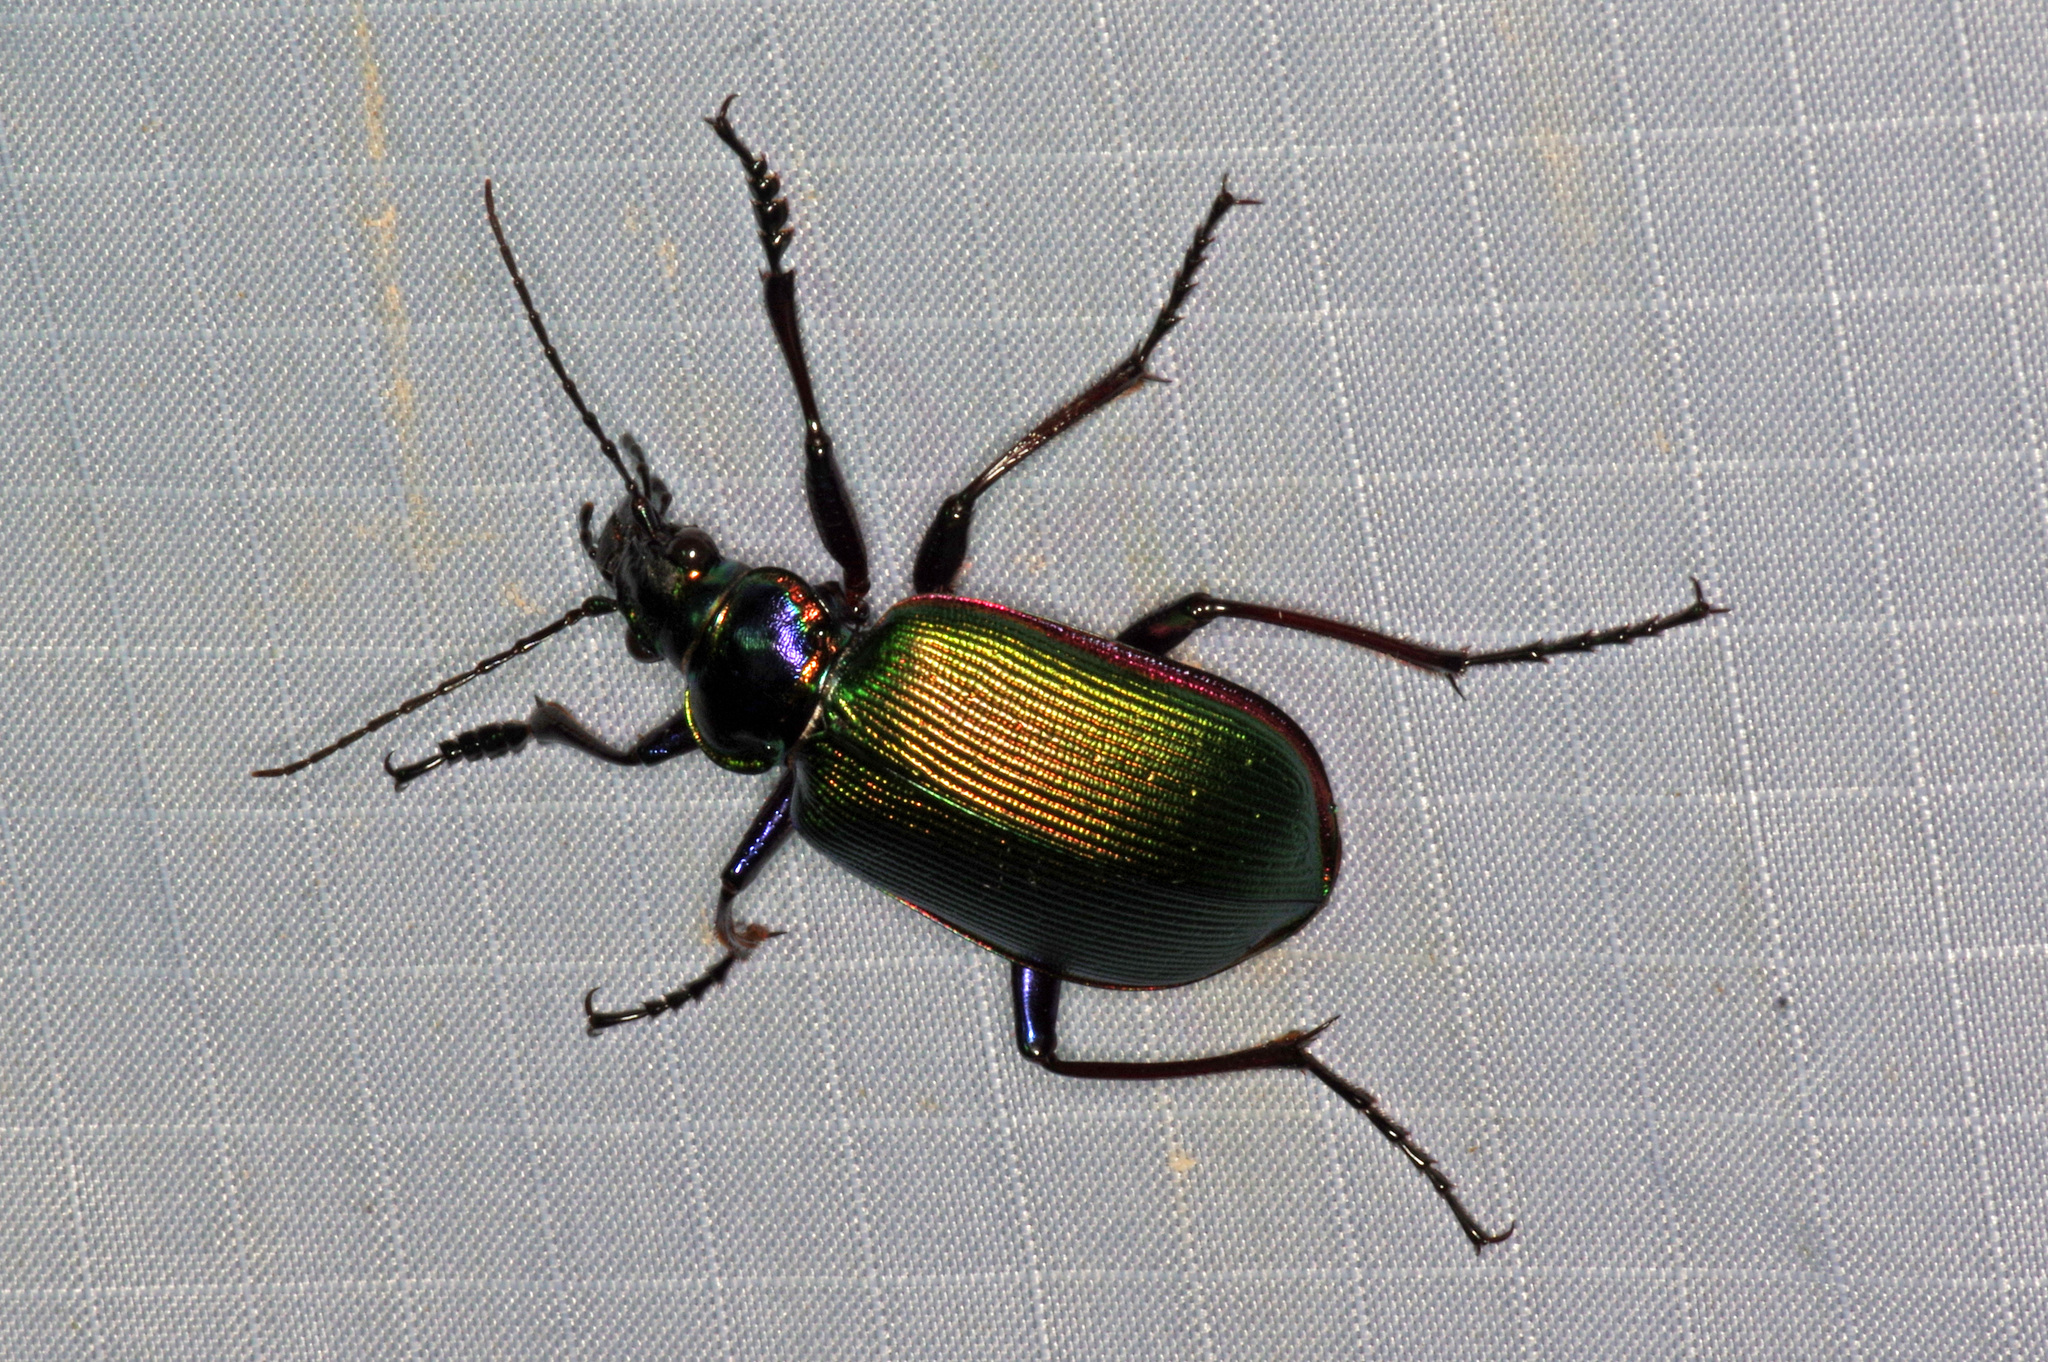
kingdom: Animalia
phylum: Arthropoda
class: Insecta
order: Coleoptera
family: Carabidae
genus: Calosoma
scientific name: Calosoma scrutator
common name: Fiery searcher beetle
